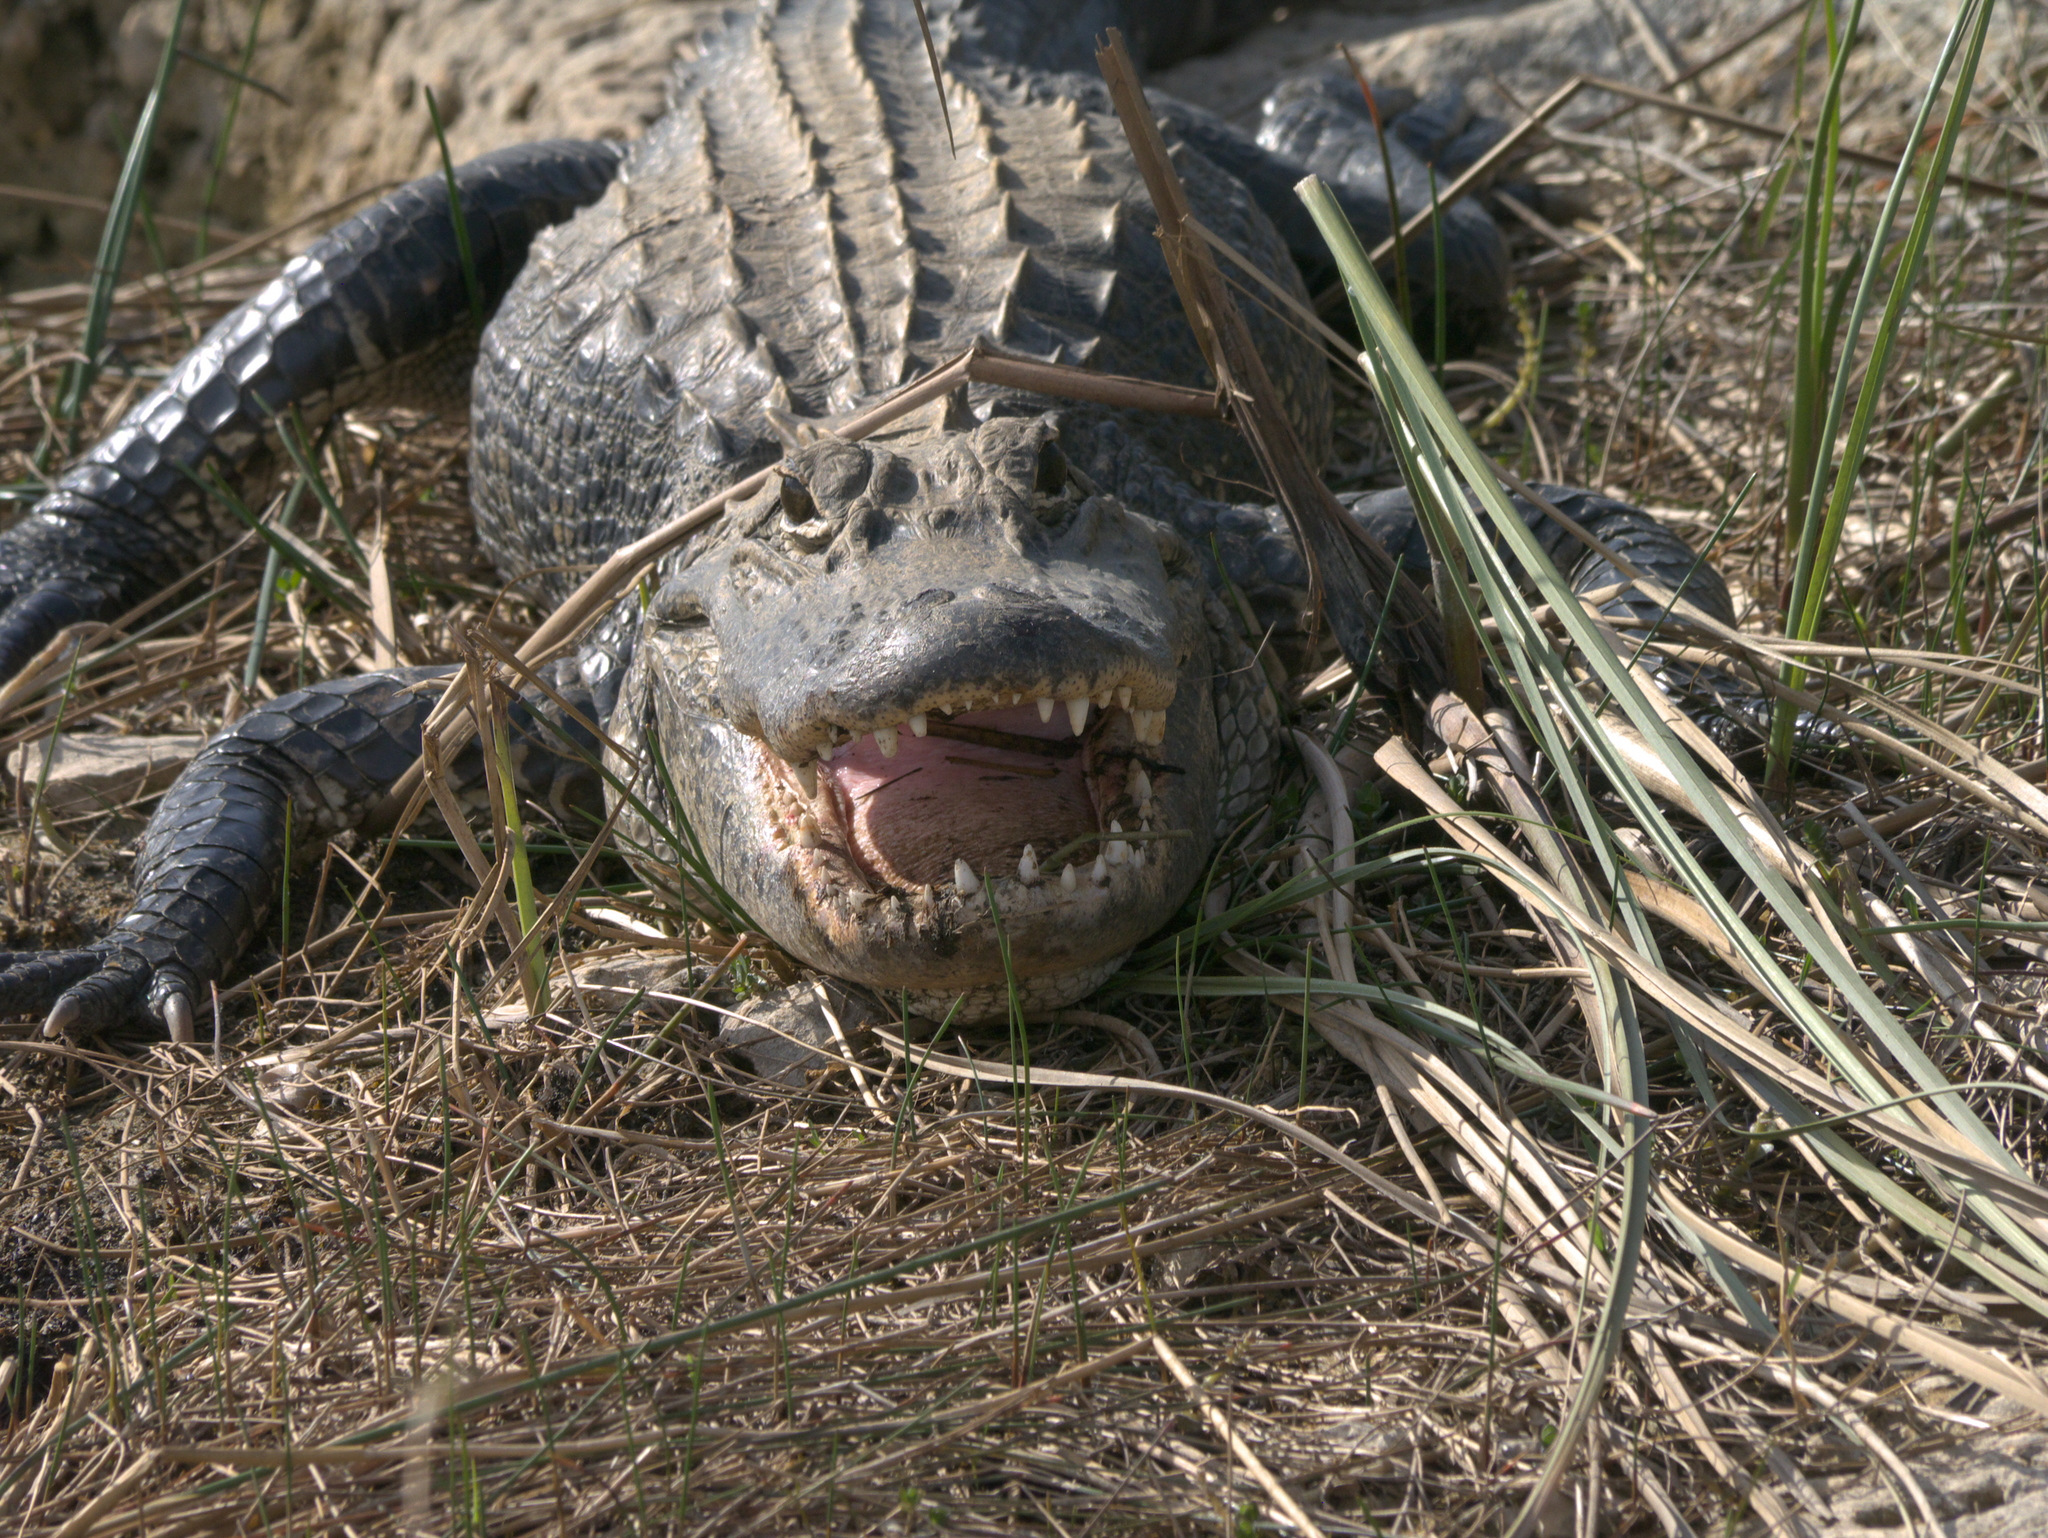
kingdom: Animalia
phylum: Chordata
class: Crocodylia
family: Alligatoridae
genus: Alligator
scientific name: Alligator mississippiensis
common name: American alligator
